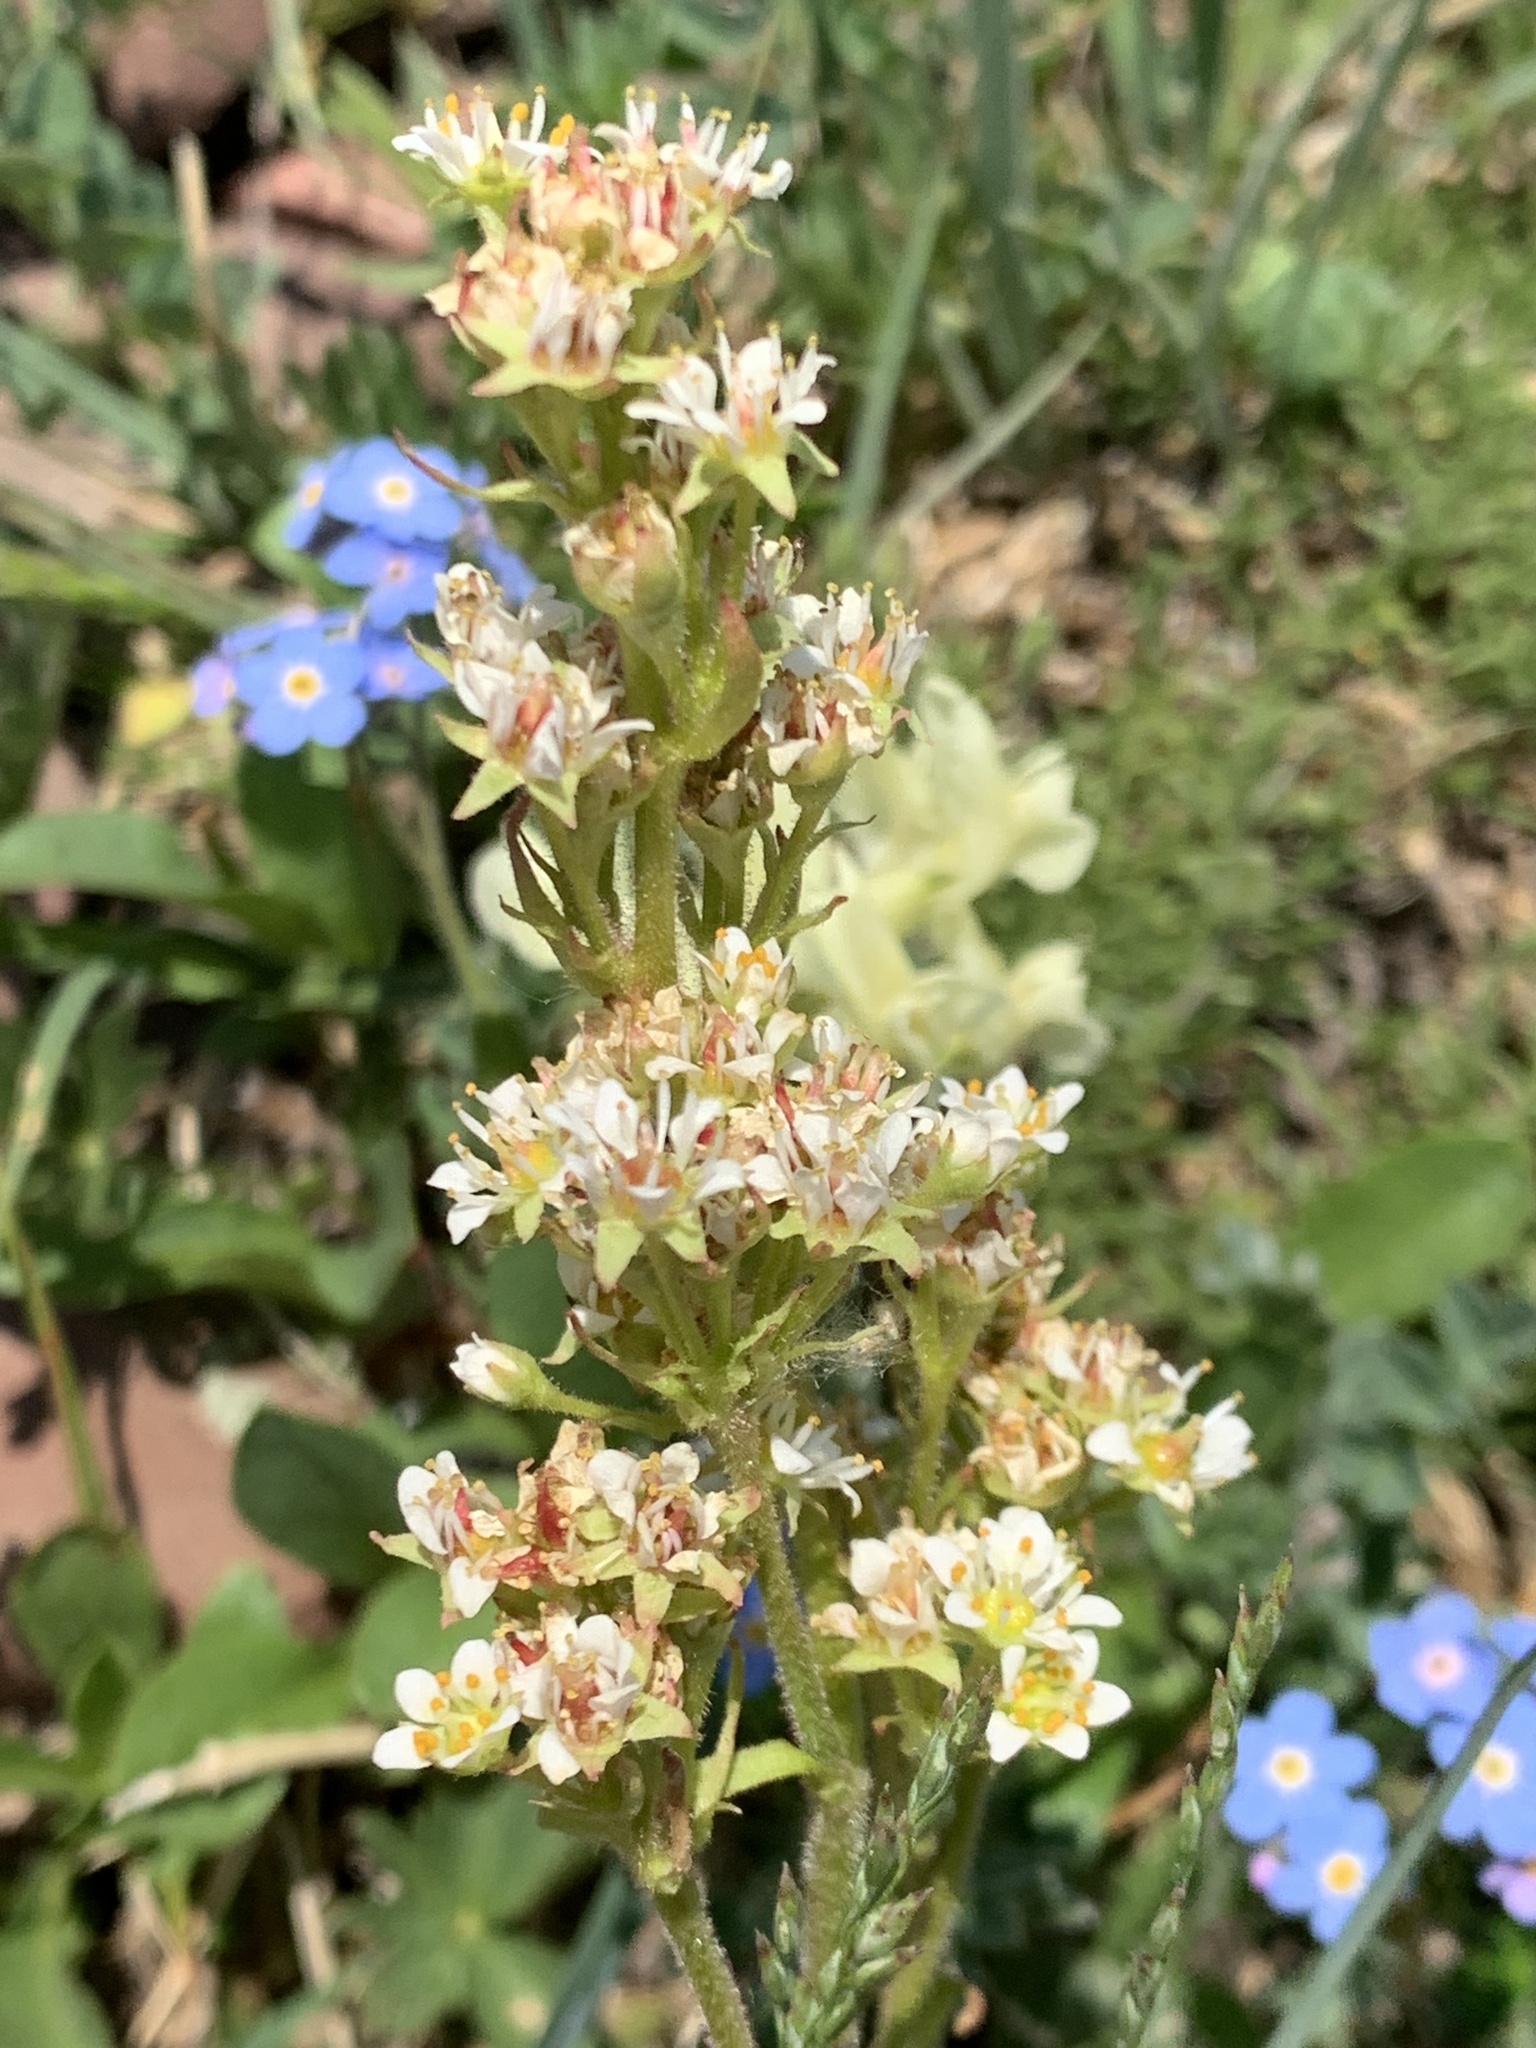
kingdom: Plantae
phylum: Tracheophyta
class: Magnoliopsida
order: Saxifragales
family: Saxifragaceae
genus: Micranthes
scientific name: Micranthes occidentalis
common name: Alberta saxifrage
